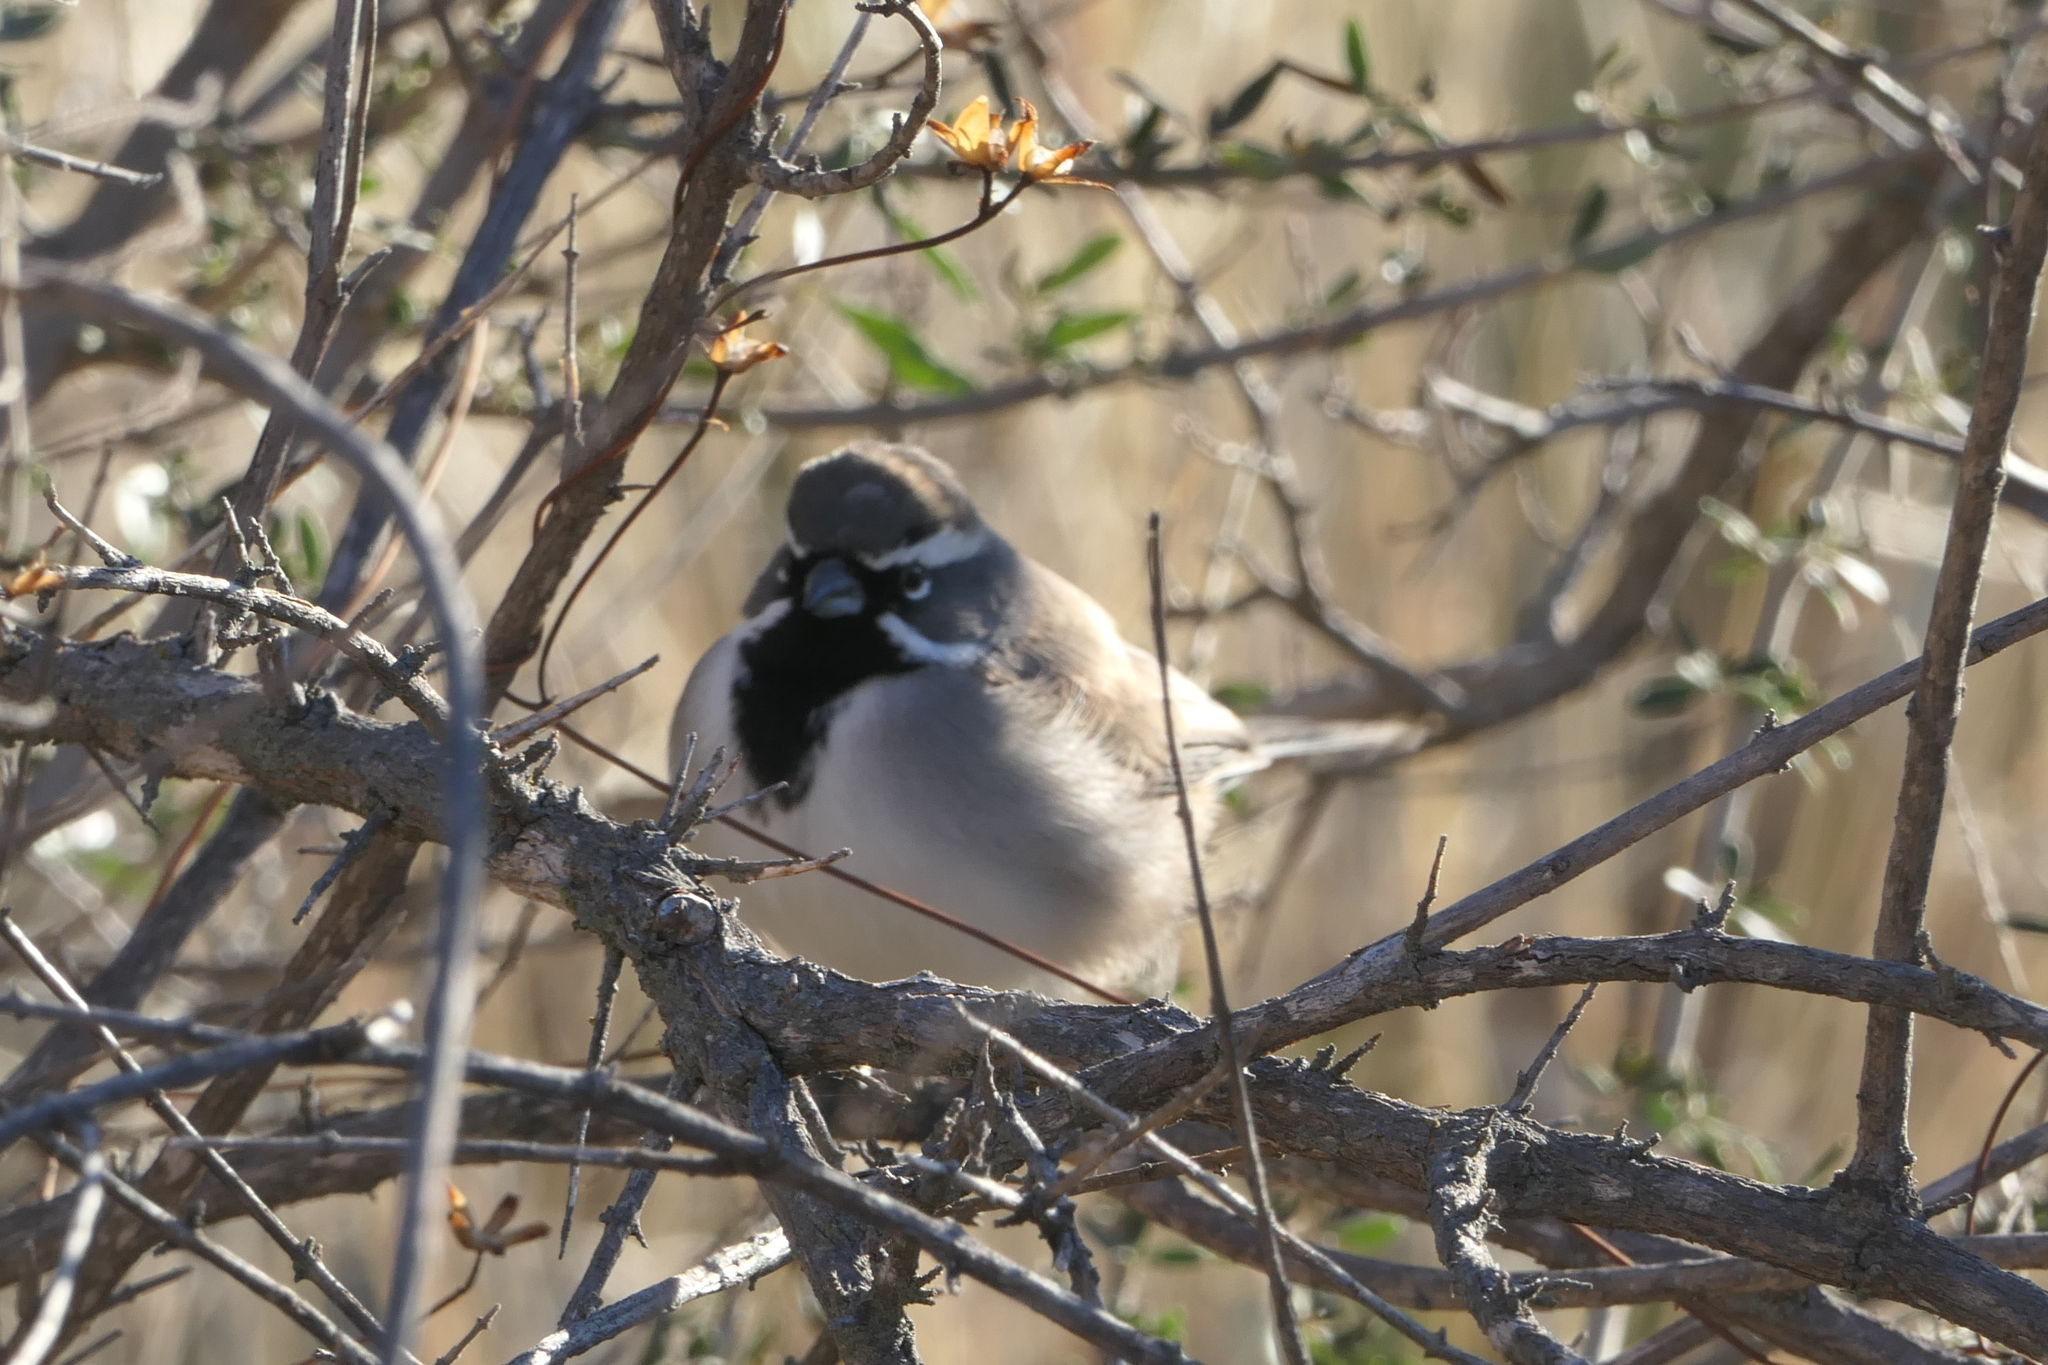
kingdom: Animalia
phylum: Chordata
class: Aves
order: Passeriformes
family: Passerellidae
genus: Amphispiza
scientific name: Amphispiza bilineata
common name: Black-throated sparrow
